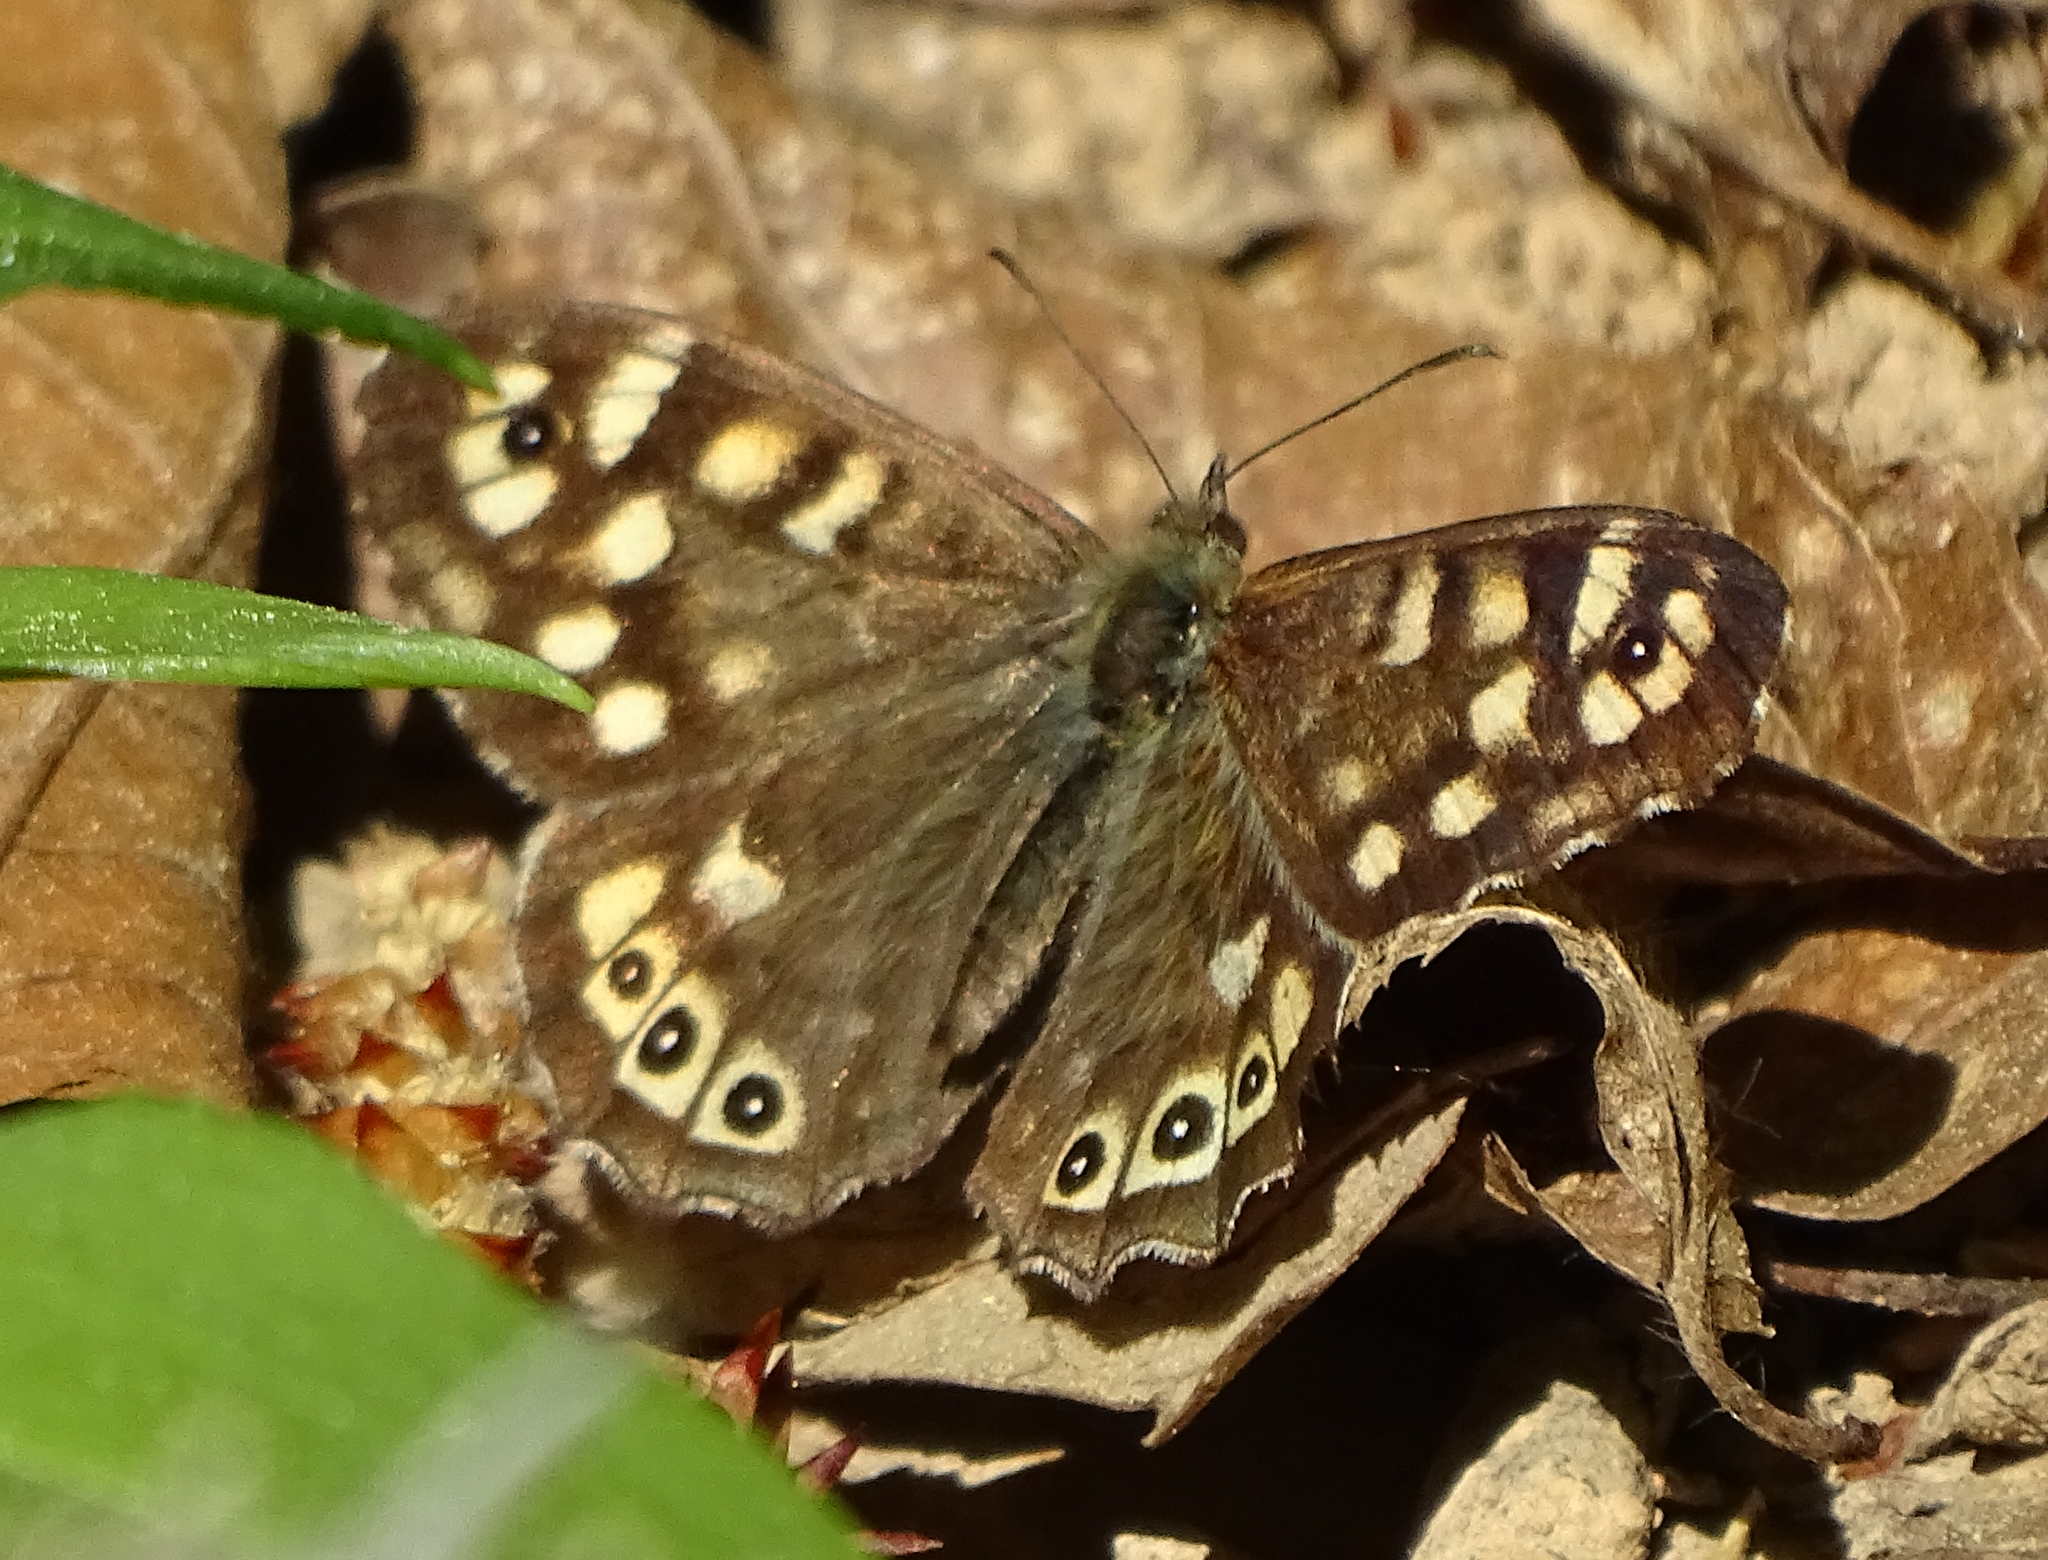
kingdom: Animalia
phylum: Arthropoda
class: Insecta
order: Lepidoptera
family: Nymphalidae
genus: Pararge
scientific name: Pararge aegeria
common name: Speckled wood
